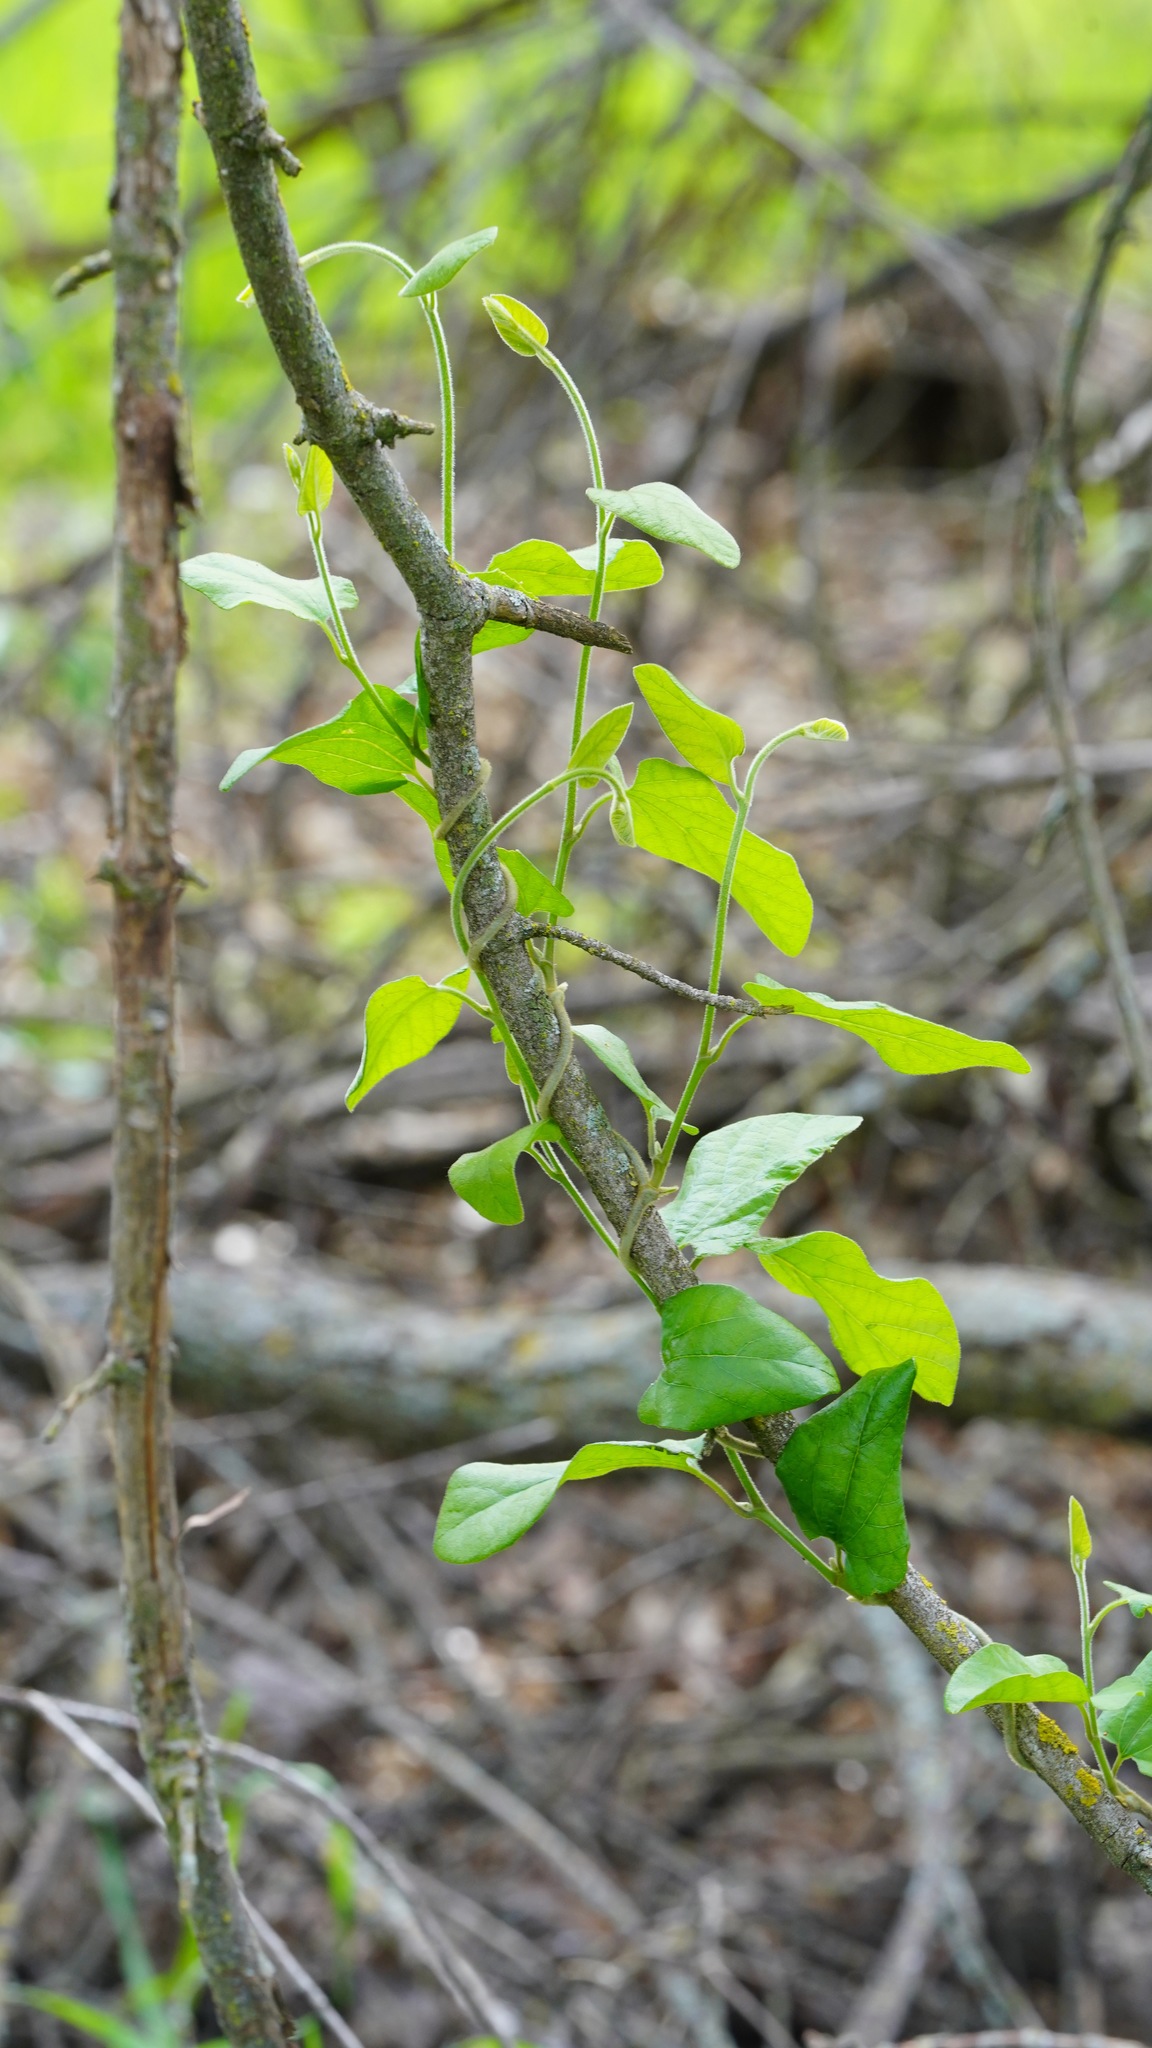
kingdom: Plantae
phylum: Tracheophyta
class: Magnoliopsida
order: Piperales
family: Aristolochiaceae
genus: Isotrema
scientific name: Isotrema californicum
